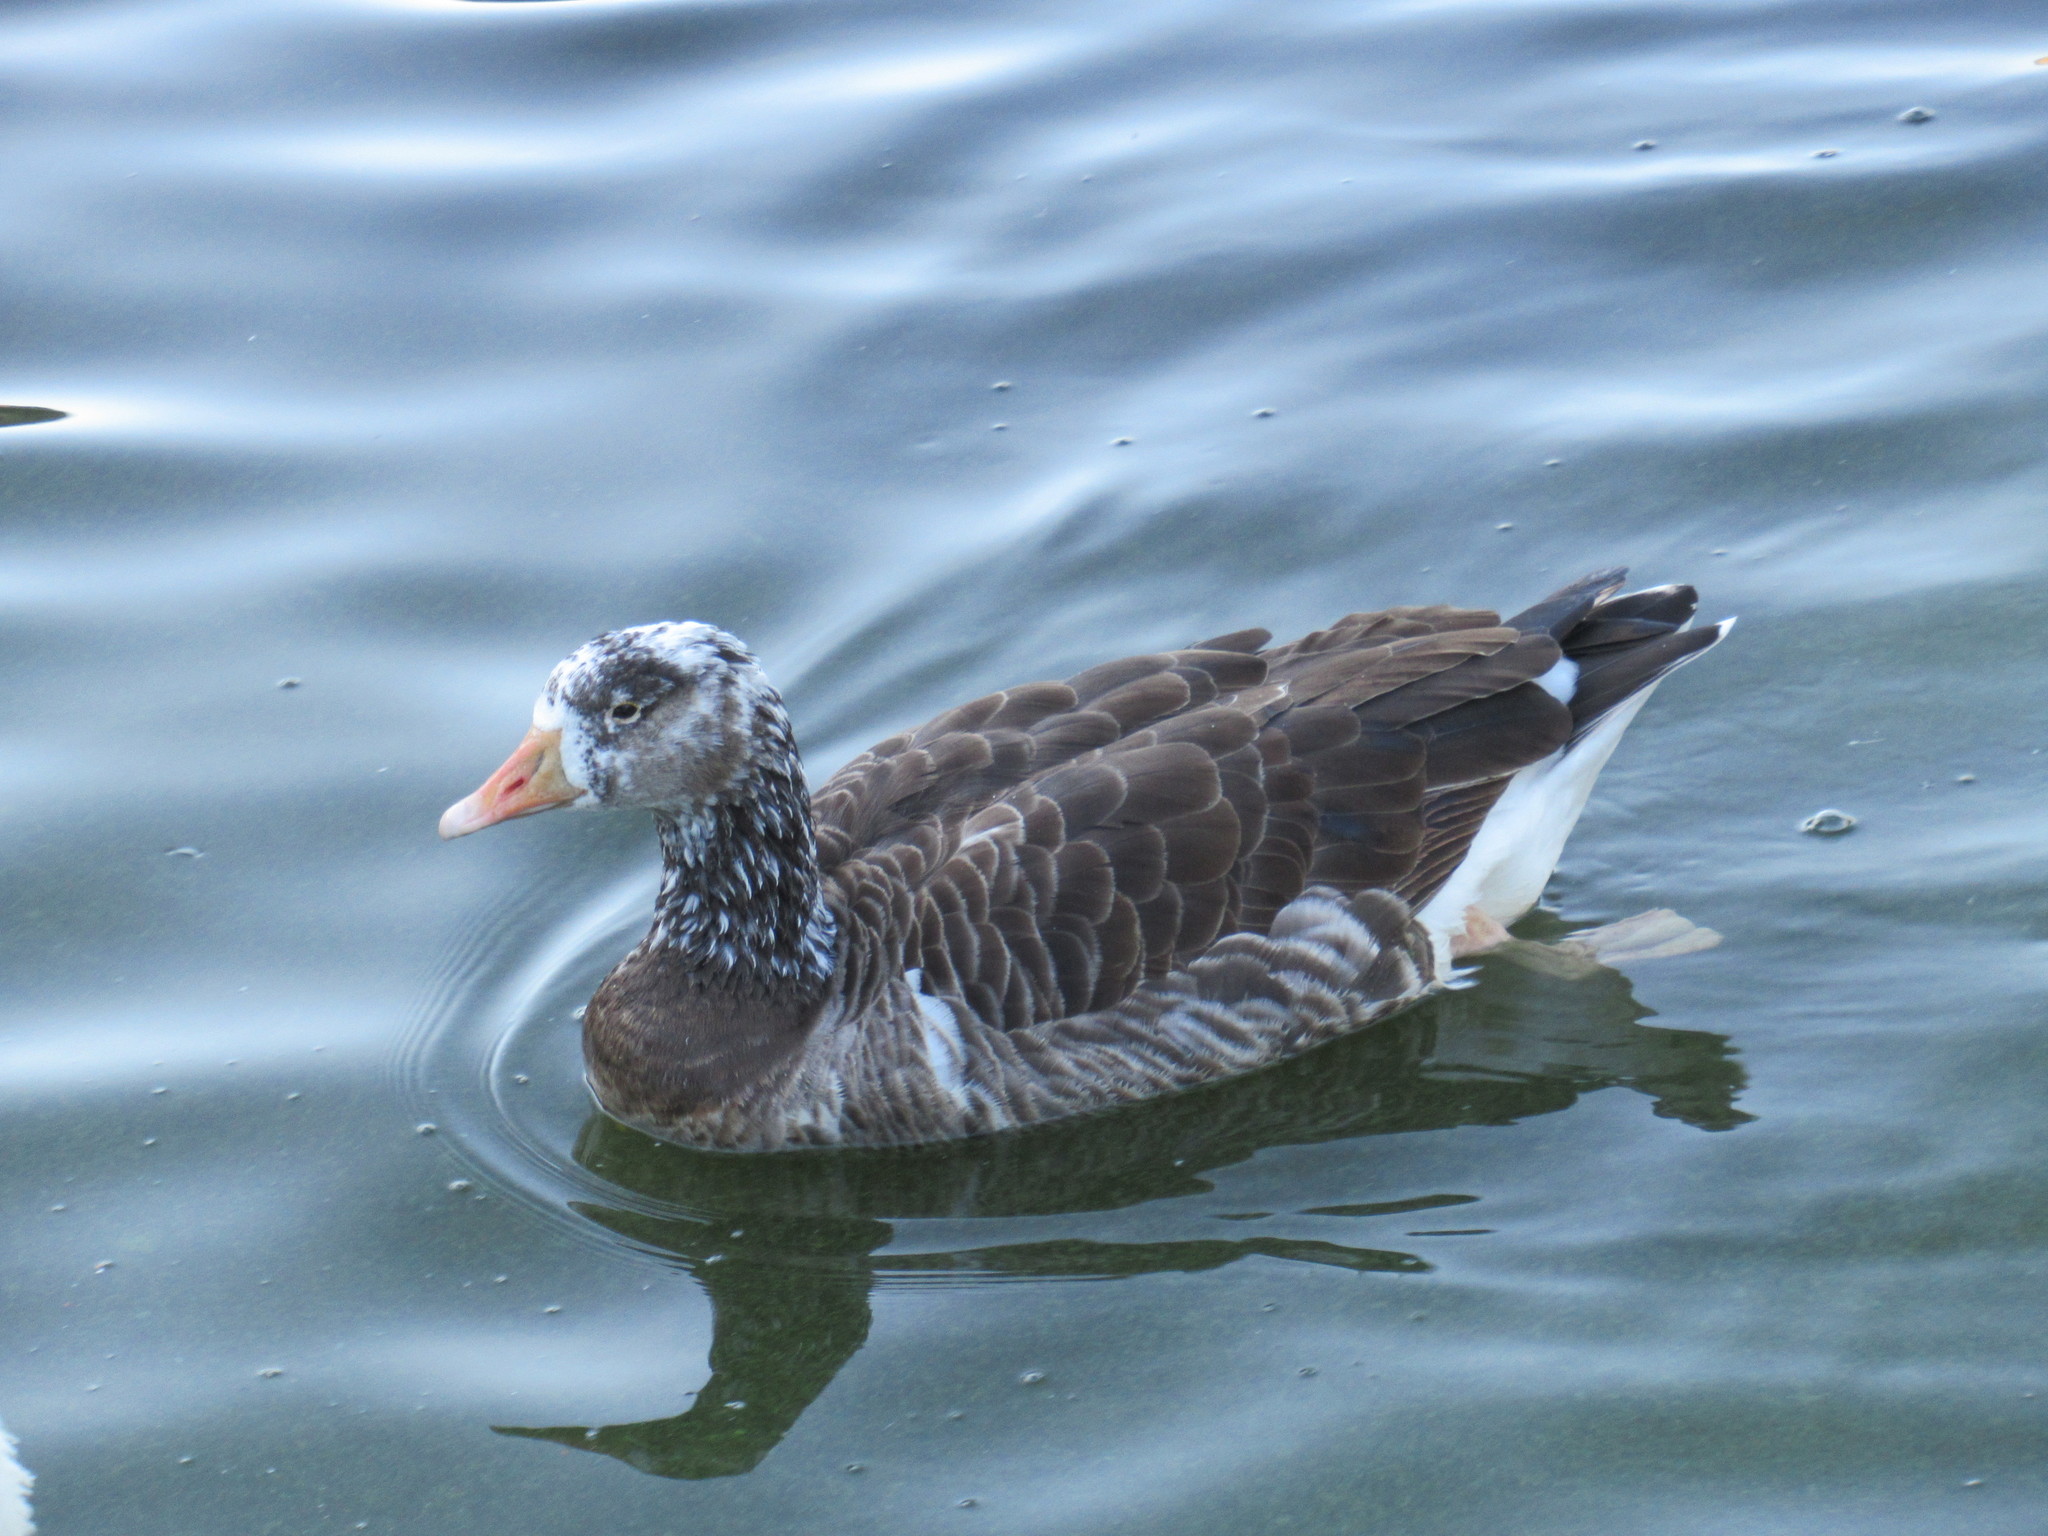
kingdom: Animalia
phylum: Chordata
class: Aves
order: Anseriformes
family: Anatidae
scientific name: Anatidae
